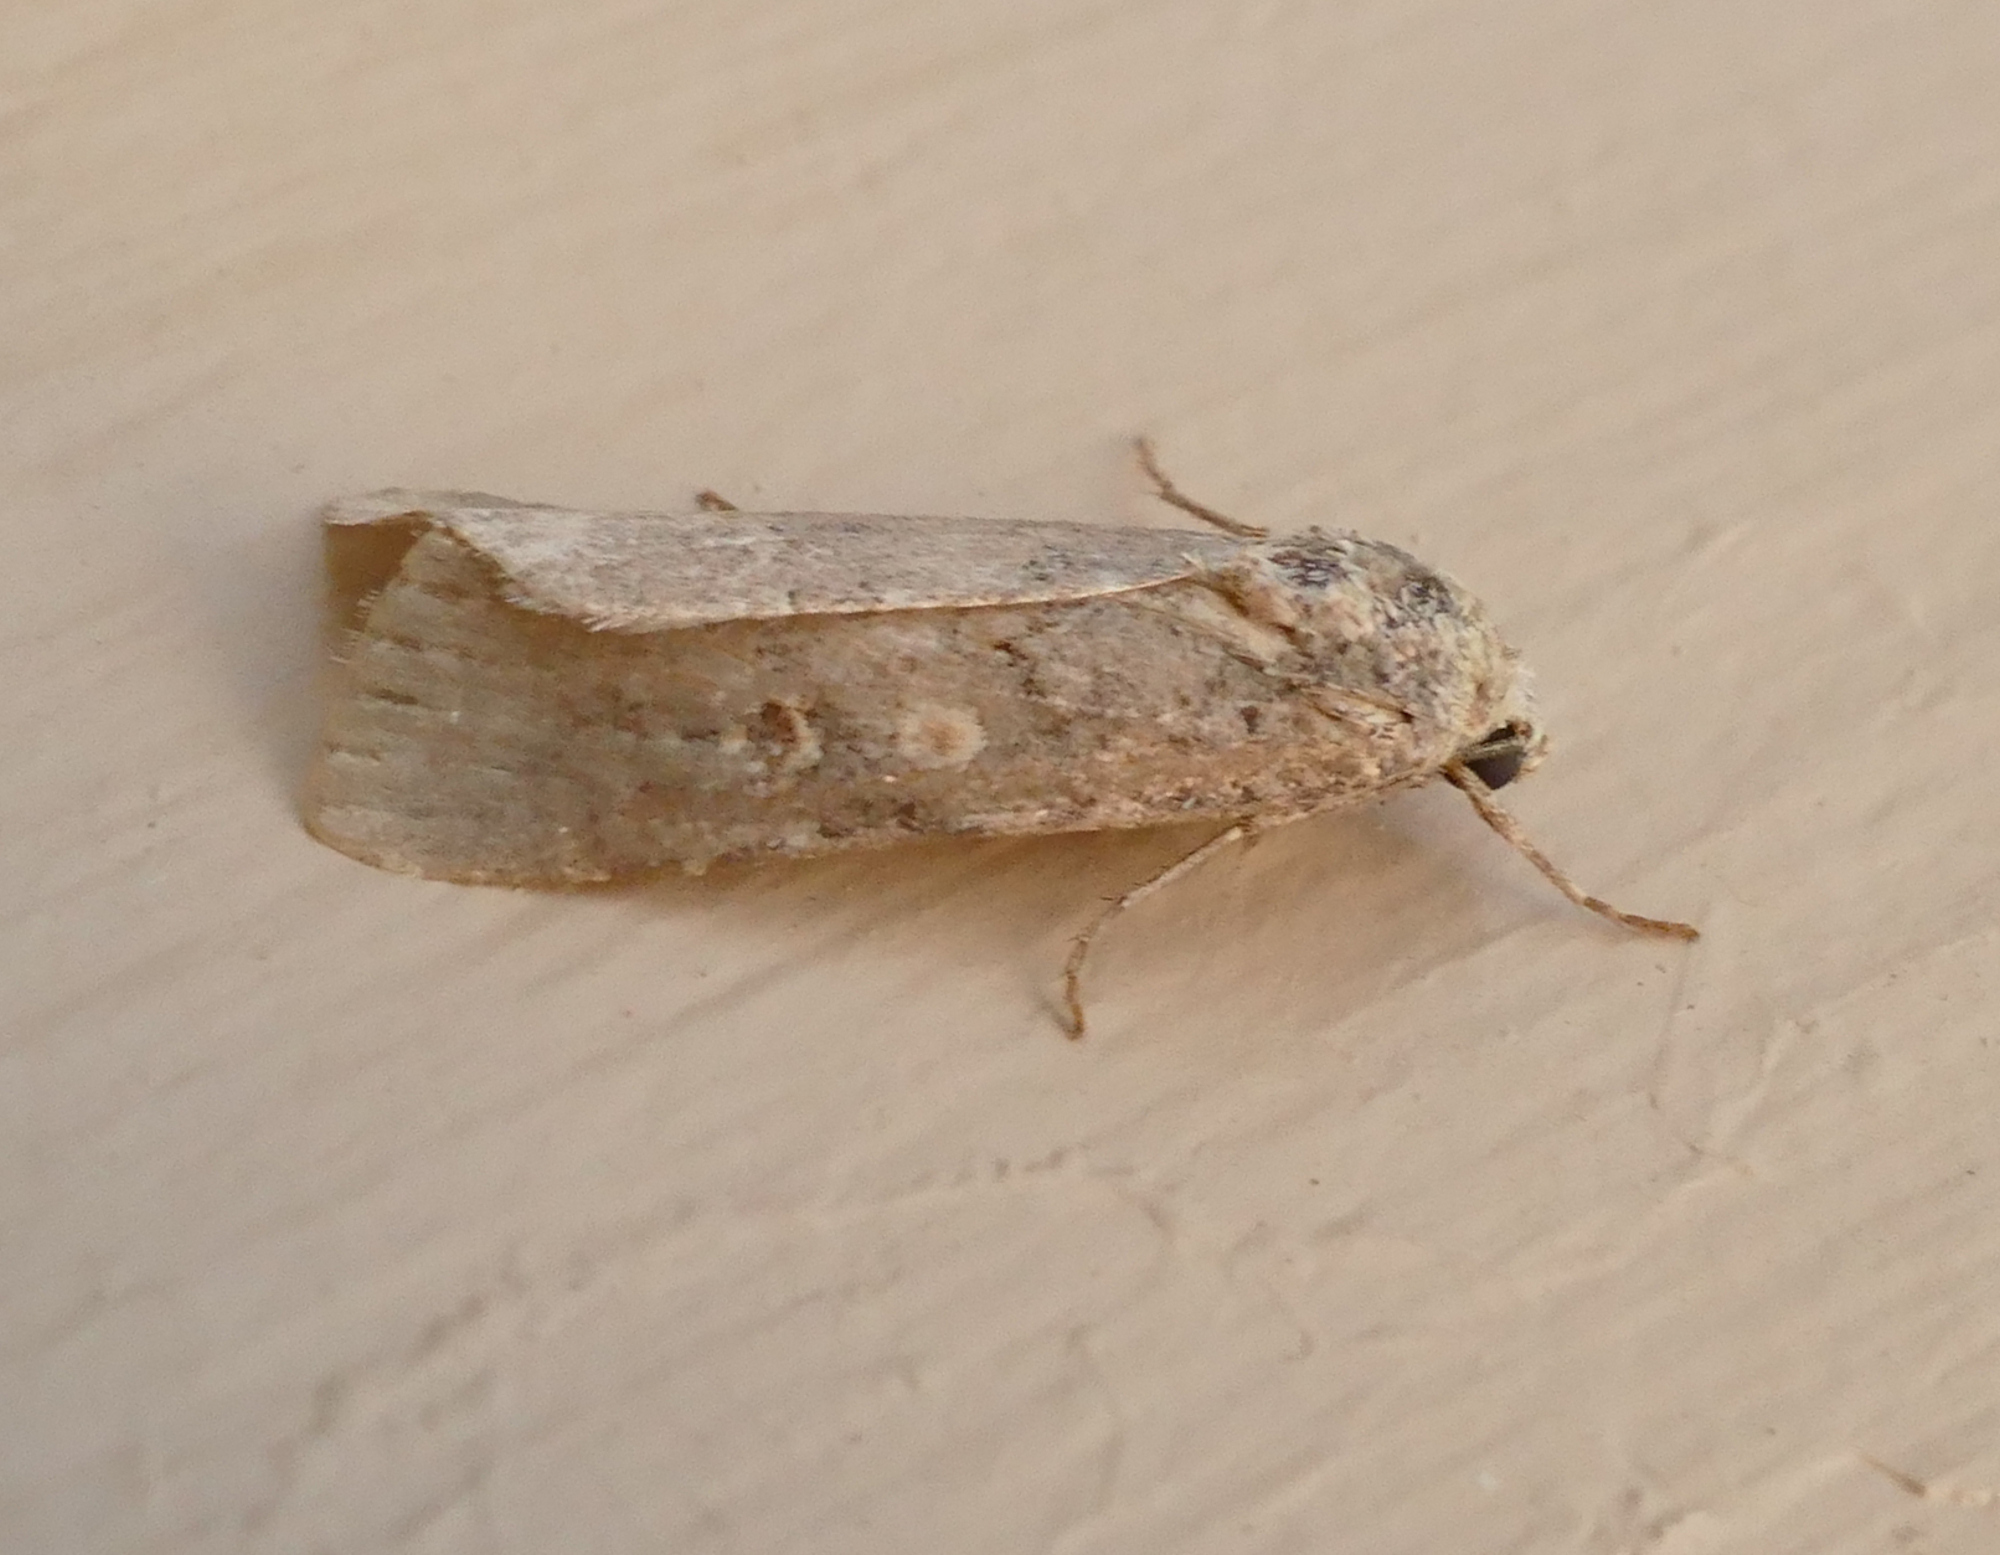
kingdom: Animalia
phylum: Arthropoda
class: Insecta
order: Lepidoptera
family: Noctuidae
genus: Spodoptera
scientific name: Spodoptera exigua
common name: Beet armyworm
